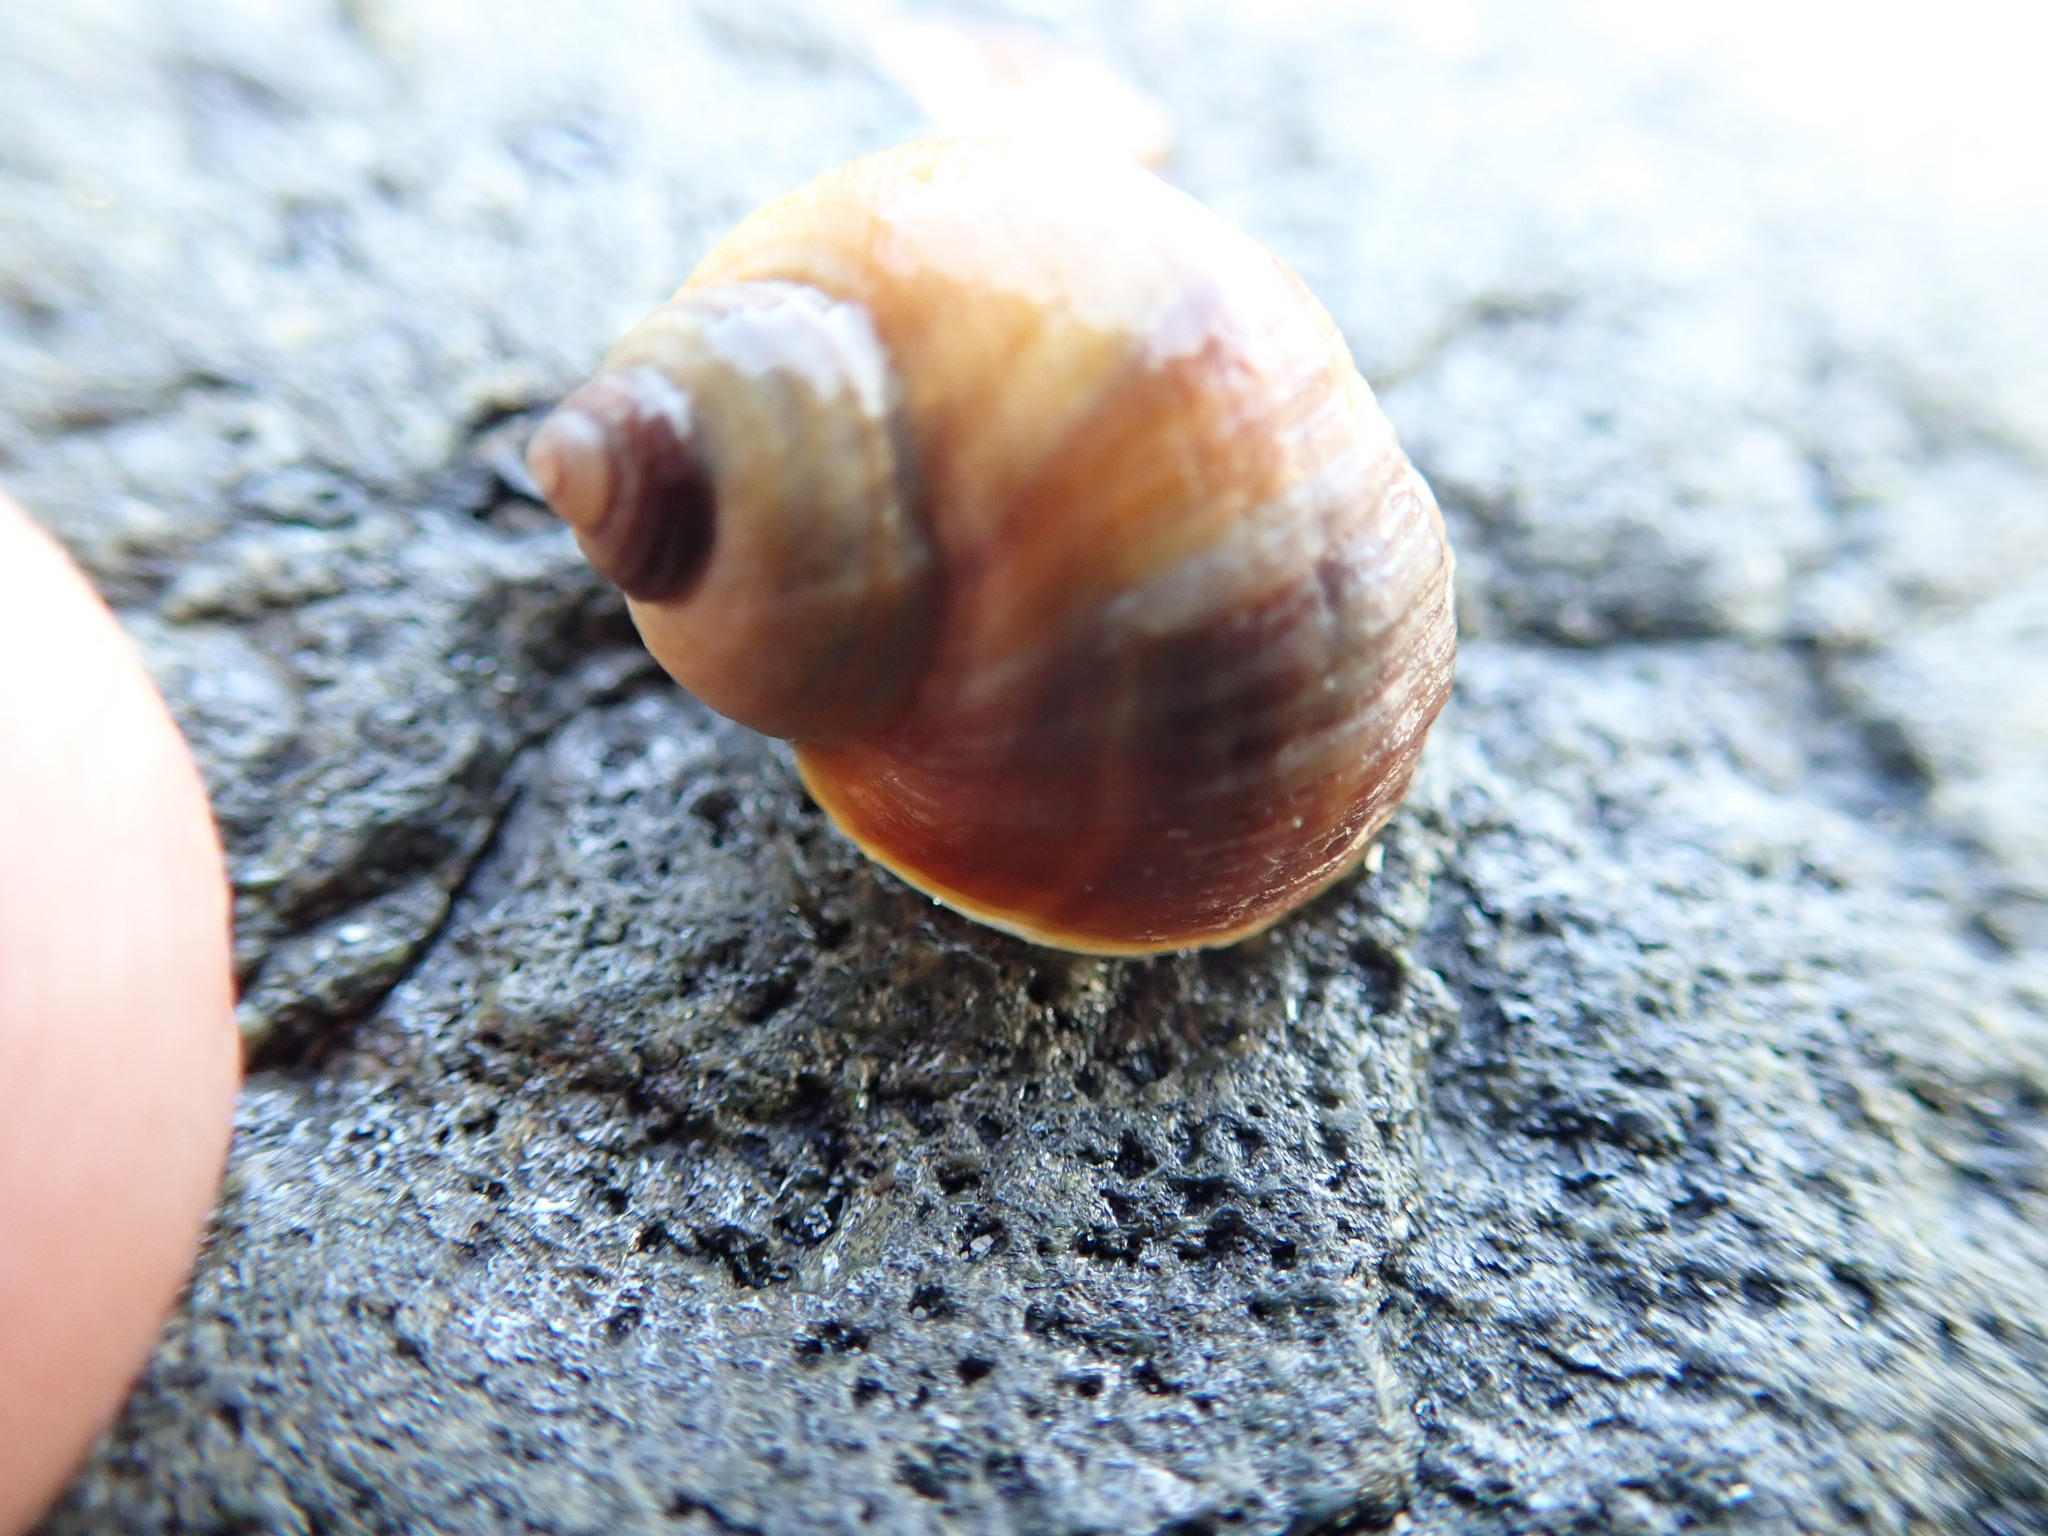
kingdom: Animalia
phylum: Mollusca
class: Gastropoda
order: Littorinimorpha
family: Littorinidae
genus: Littorina
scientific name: Littorina sitkana
